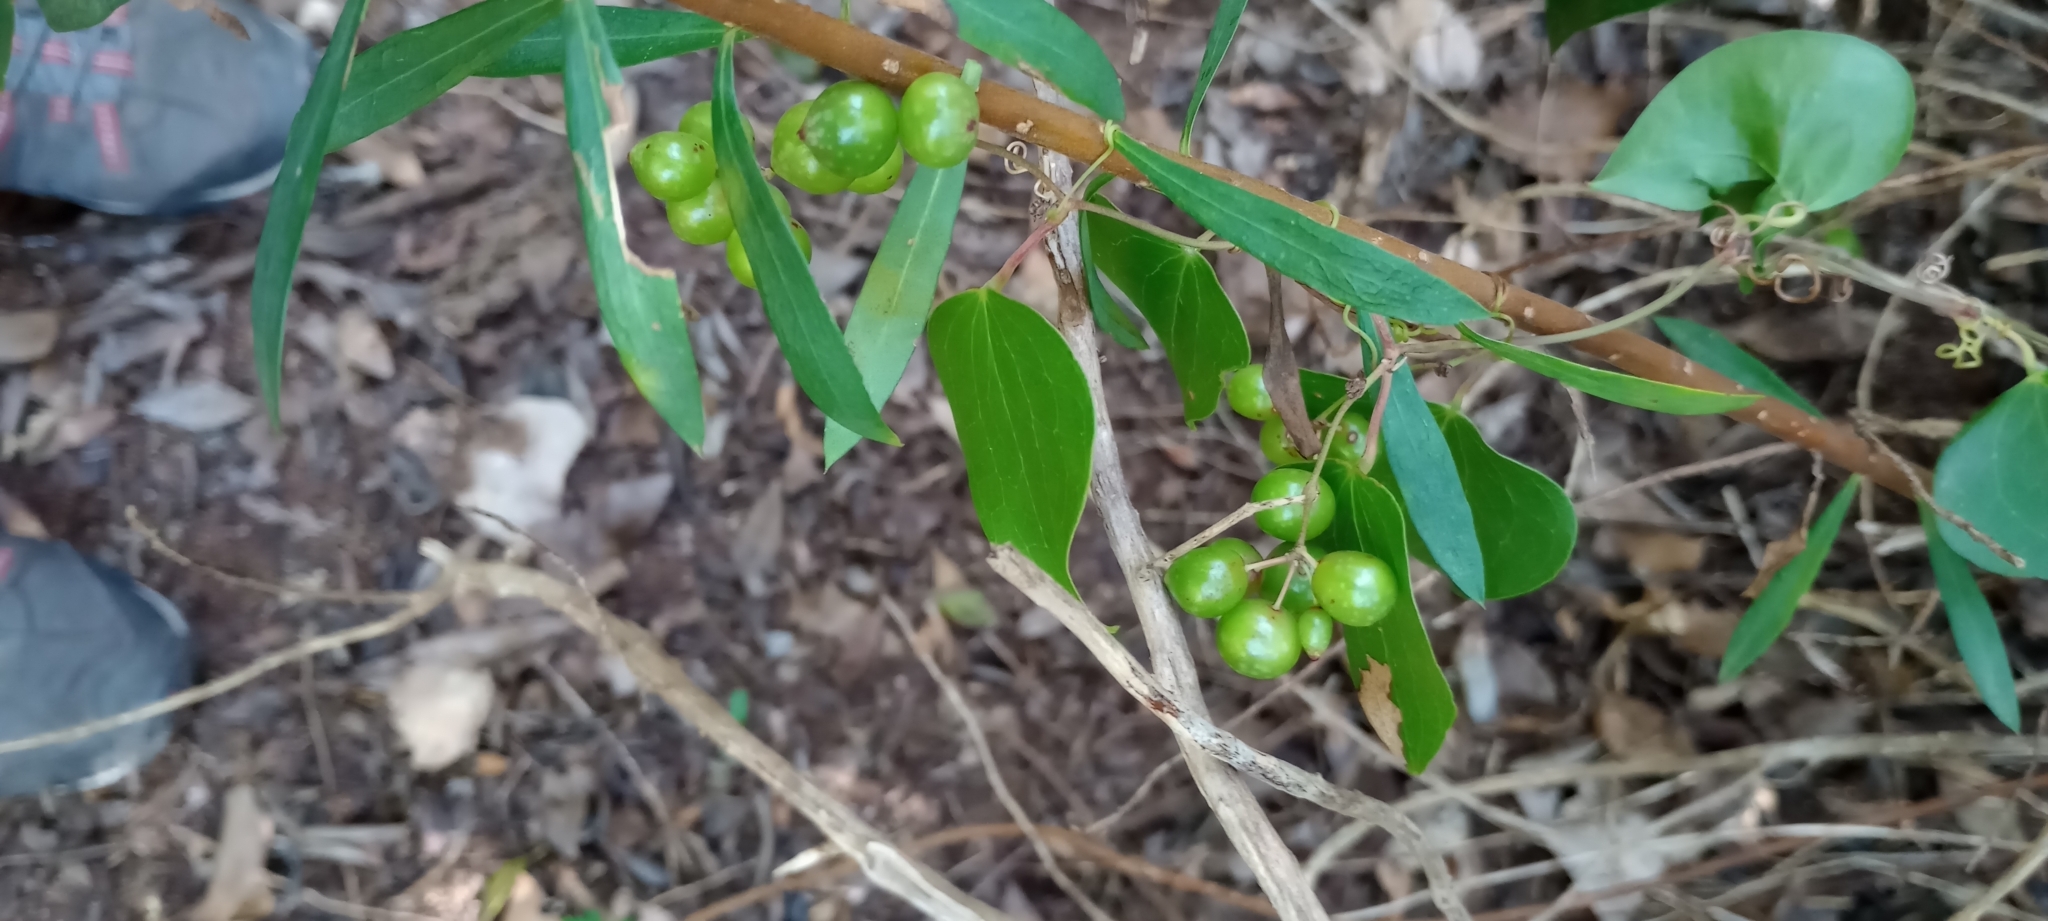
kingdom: Plantae
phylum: Tracheophyta
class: Liliopsida
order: Dioscoreales
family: Dioscoreaceae
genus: Dioscorea
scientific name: Dioscorea communis
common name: Black-bindweed
